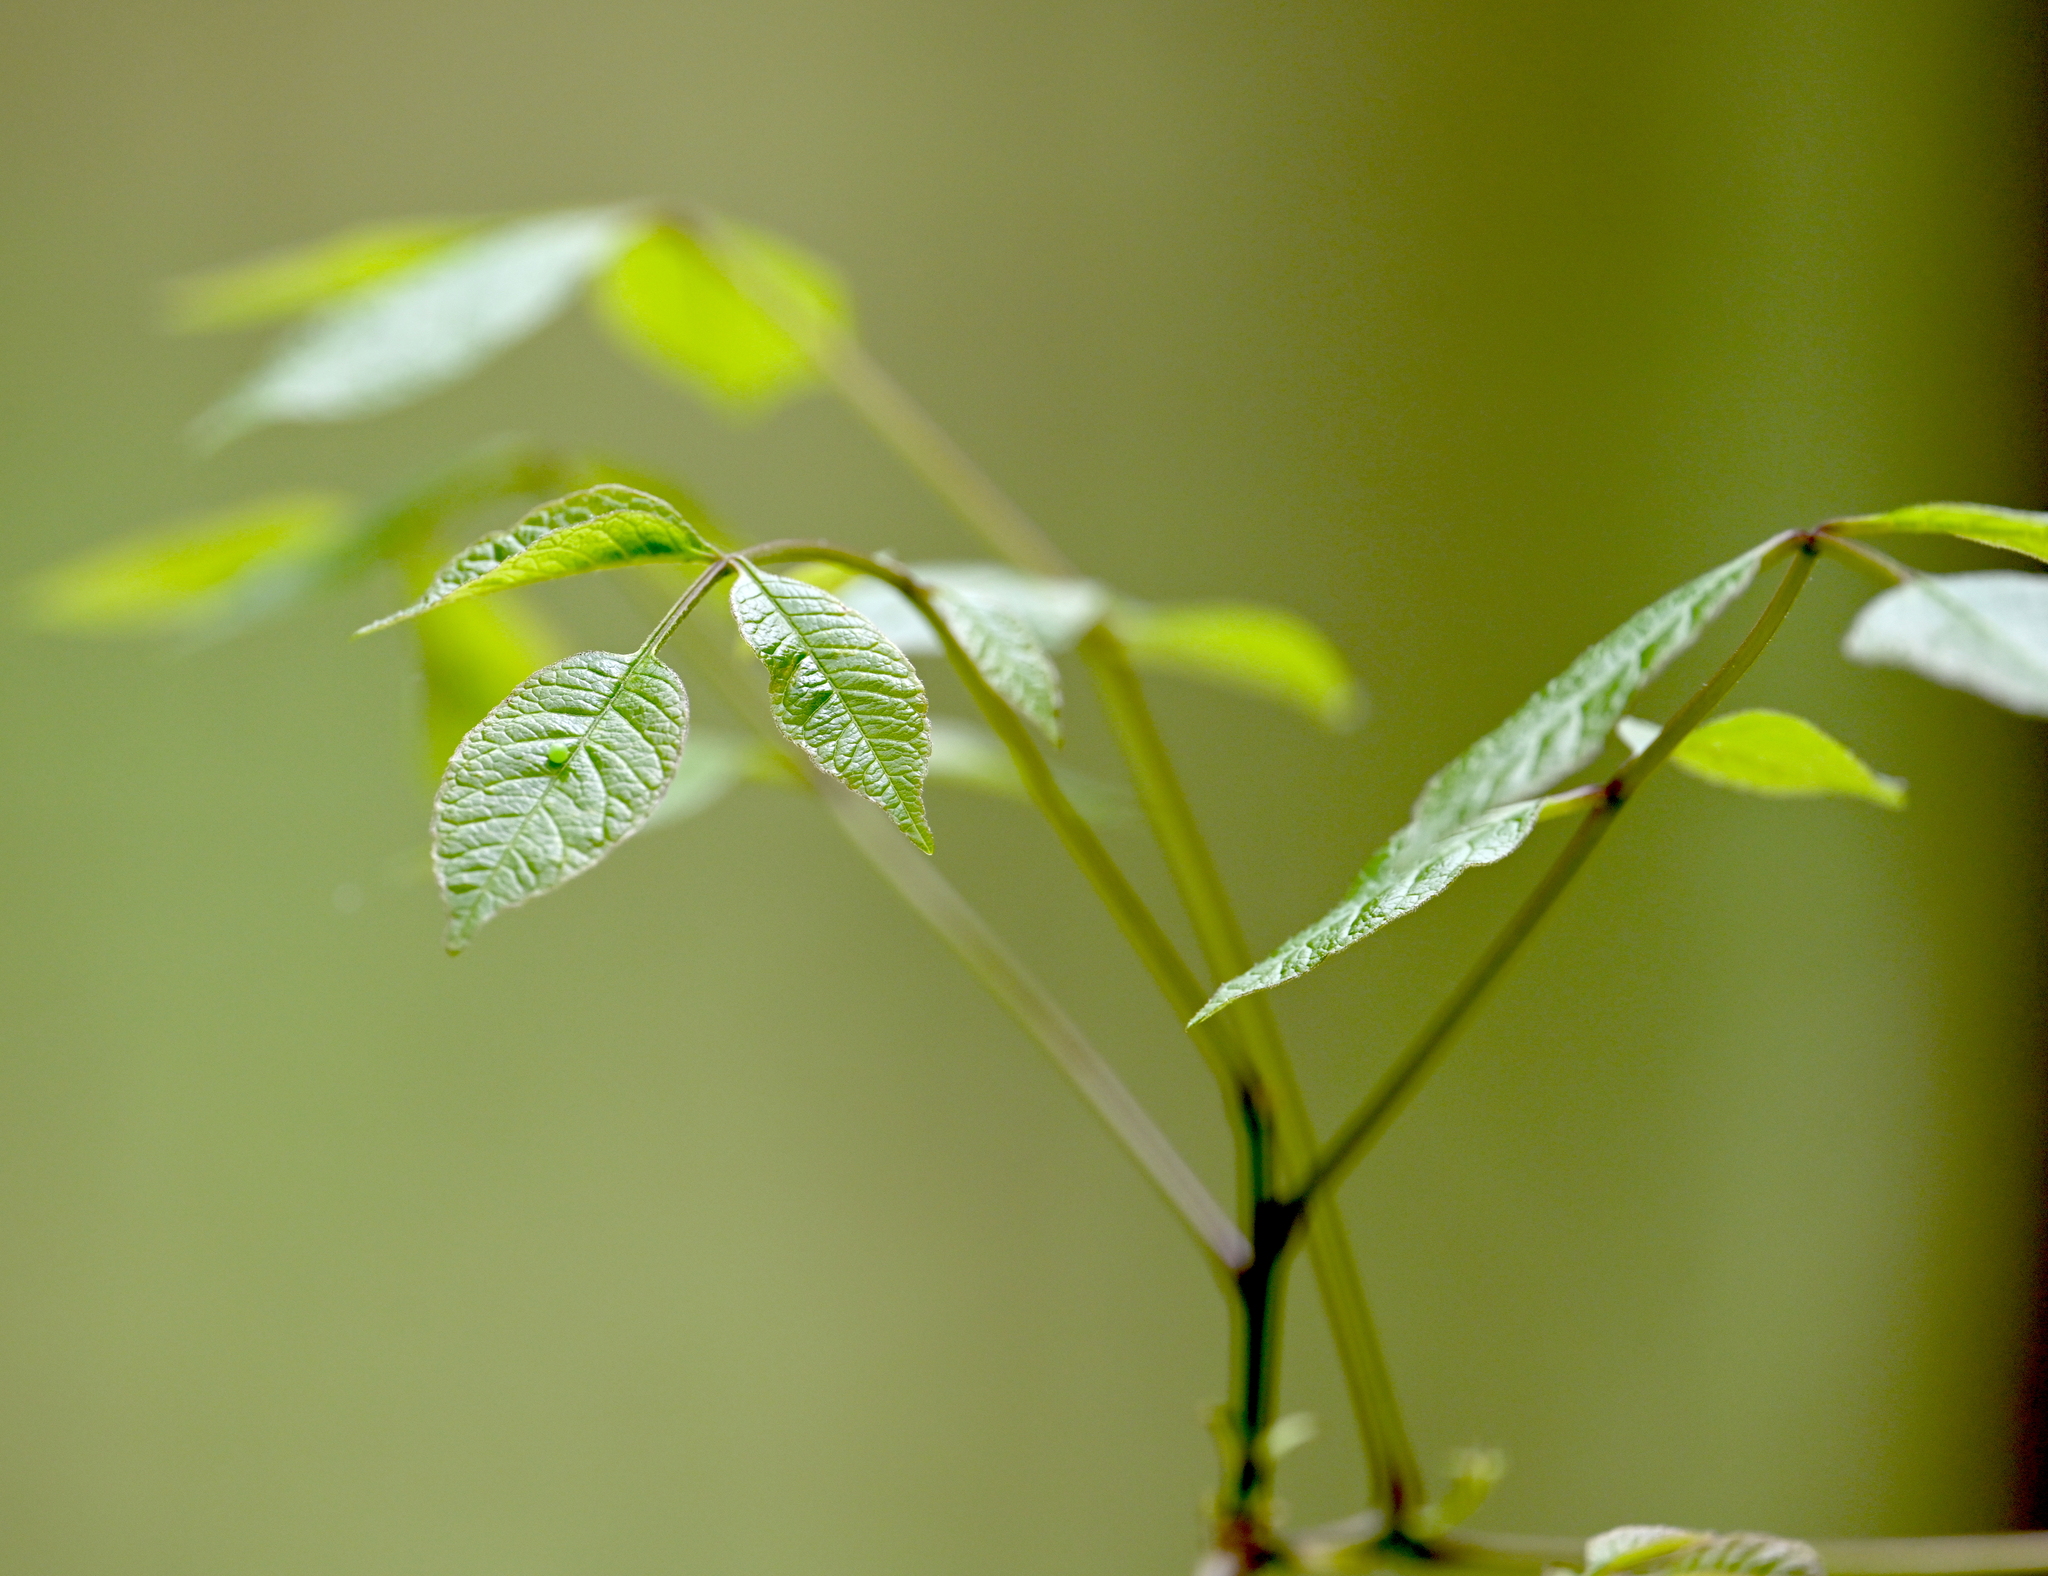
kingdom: Animalia
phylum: Arthropoda
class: Insecta
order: Lepidoptera
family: Papilionidae
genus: Papilio
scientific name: Papilio glaucus
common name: Tiger swallowtail
